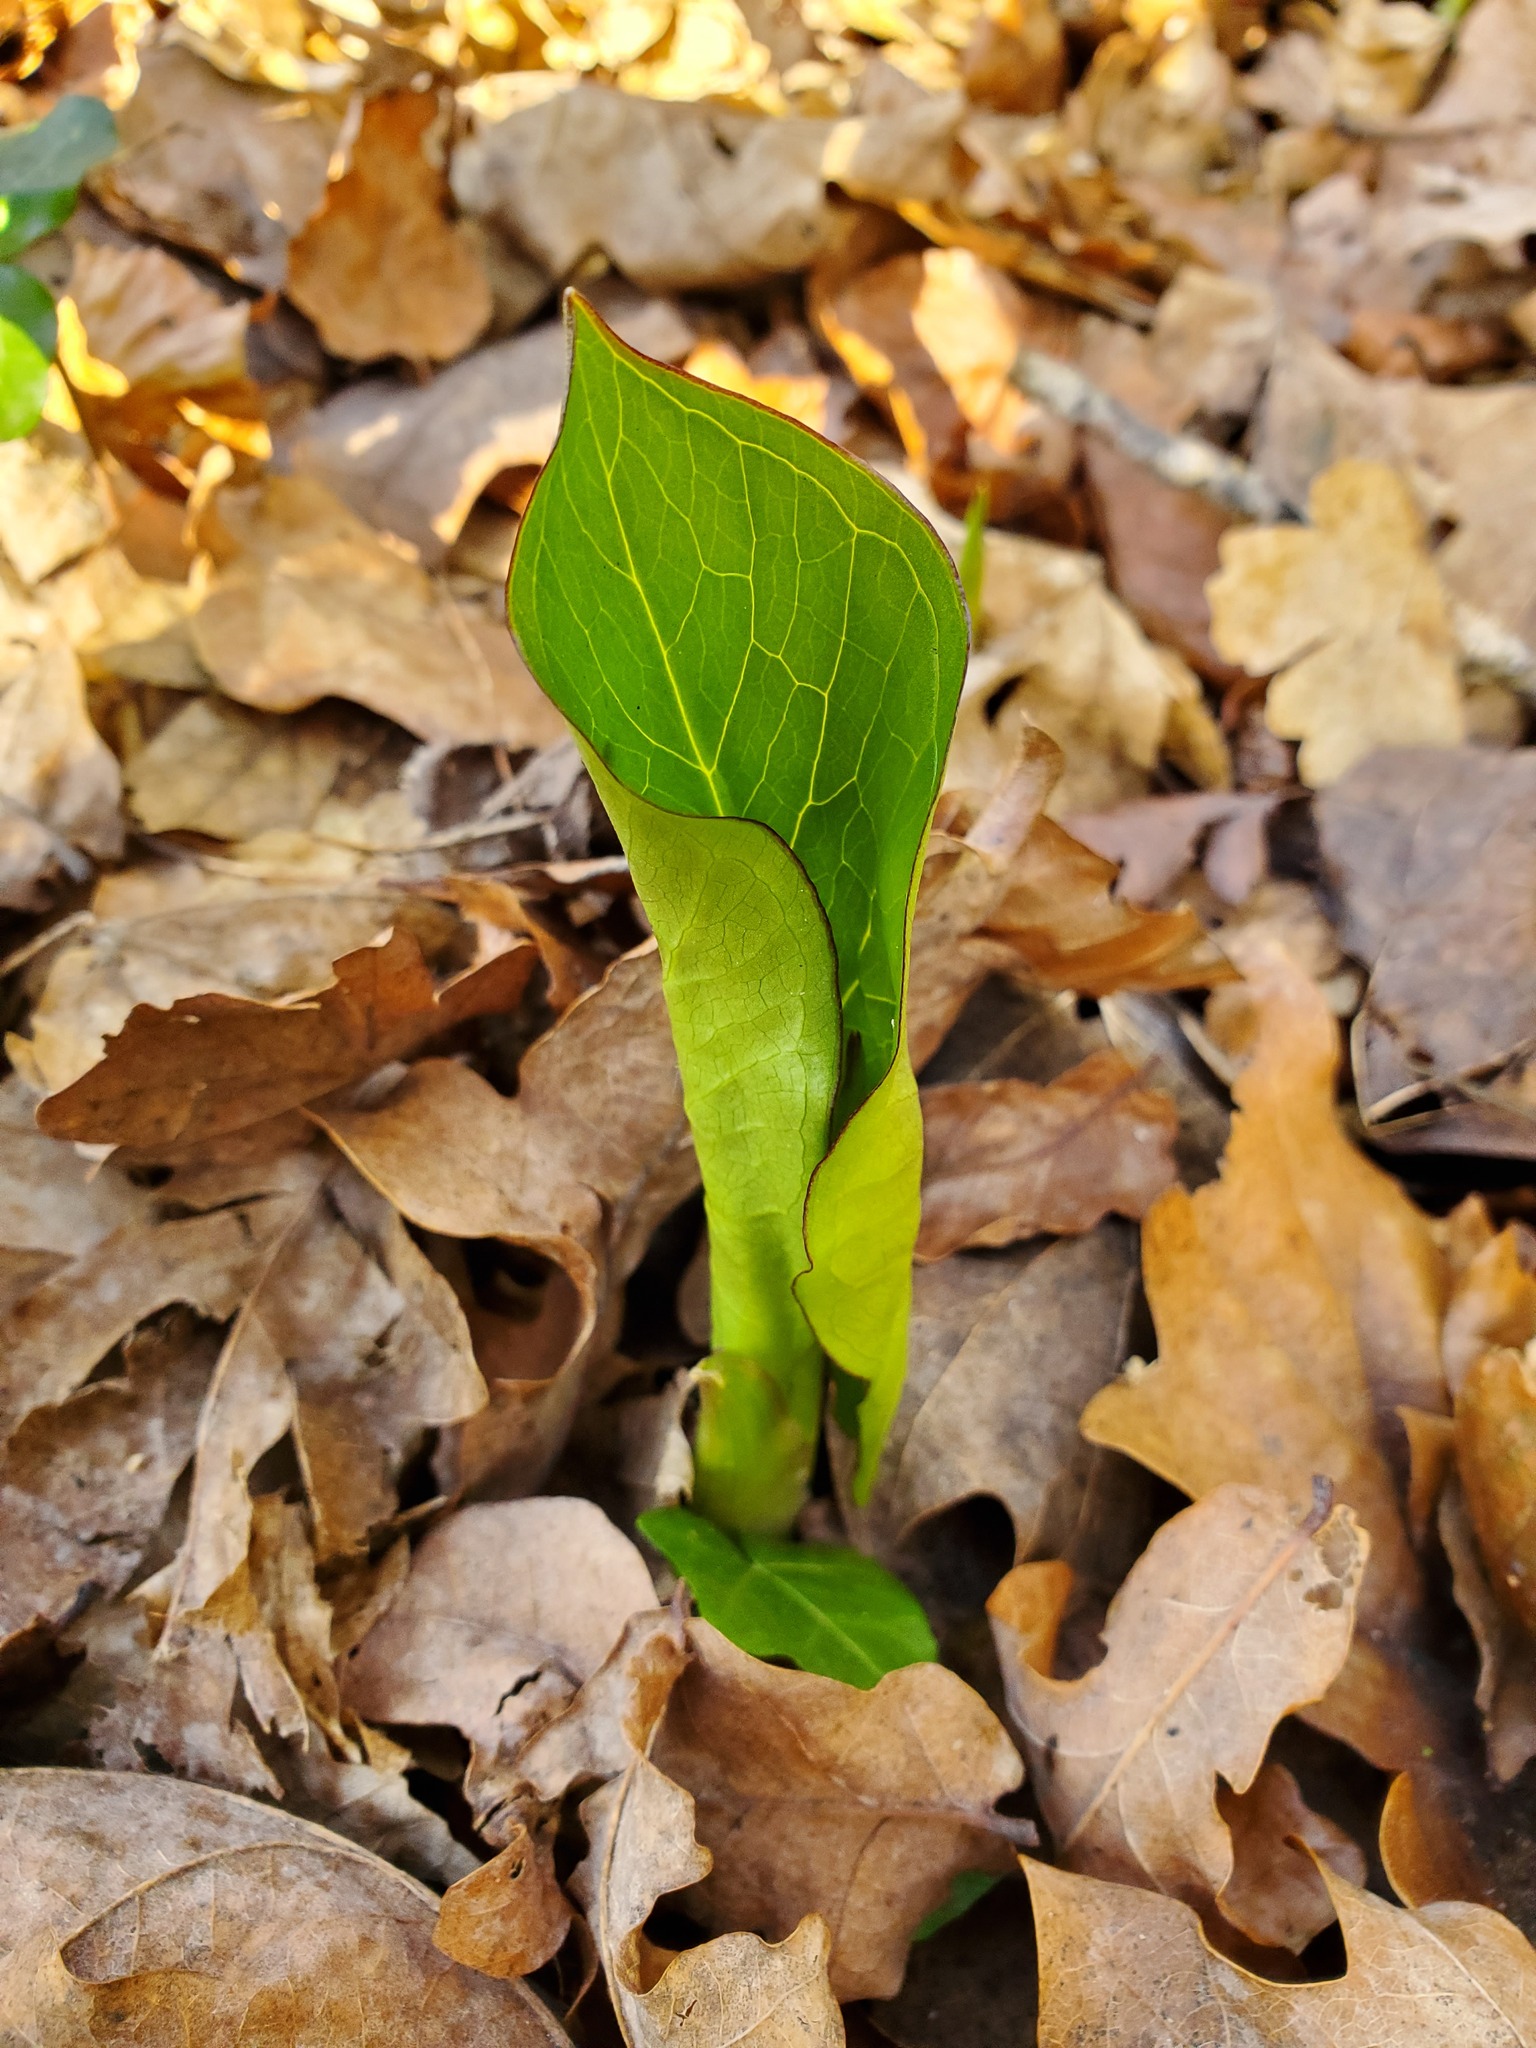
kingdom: Plantae
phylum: Tracheophyta
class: Liliopsida
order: Alismatales
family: Araceae
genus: Arum
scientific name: Arum maculatum
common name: Lords-and-ladies
